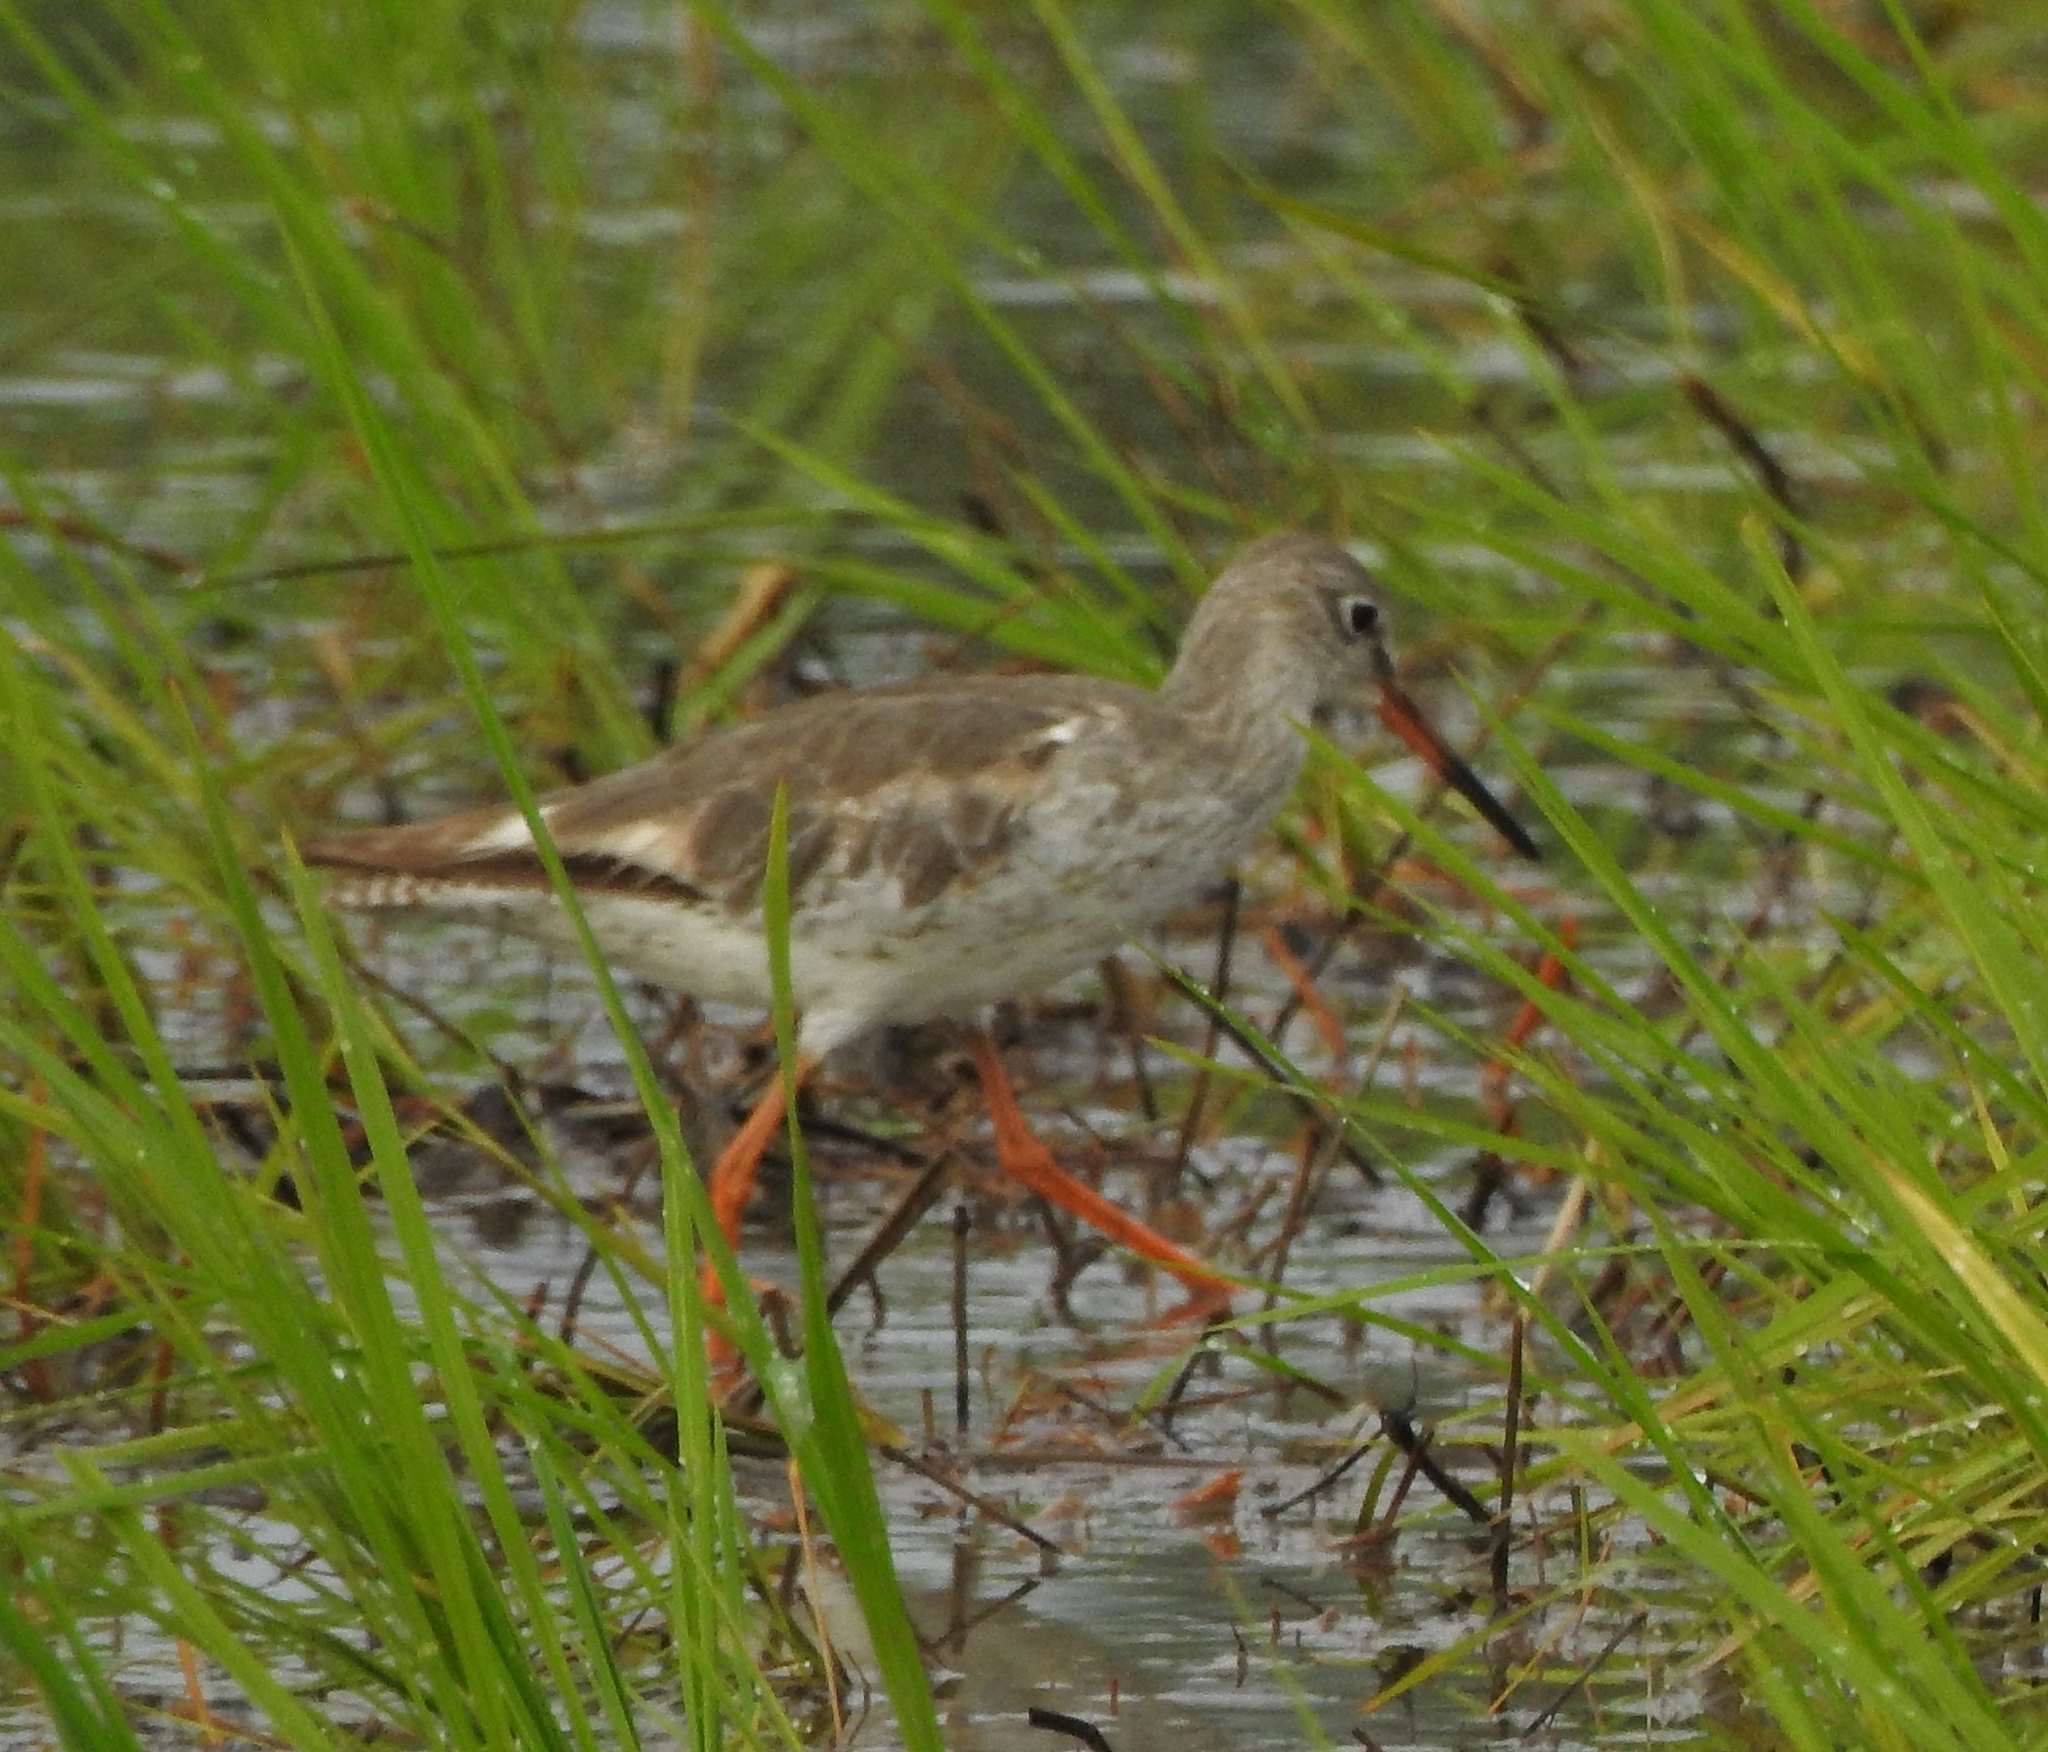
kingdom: Animalia
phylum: Chordata
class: Aves
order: Charadriiformes
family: Scolopacidae
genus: Tringa
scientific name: Tringa totanus
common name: Common redshank
